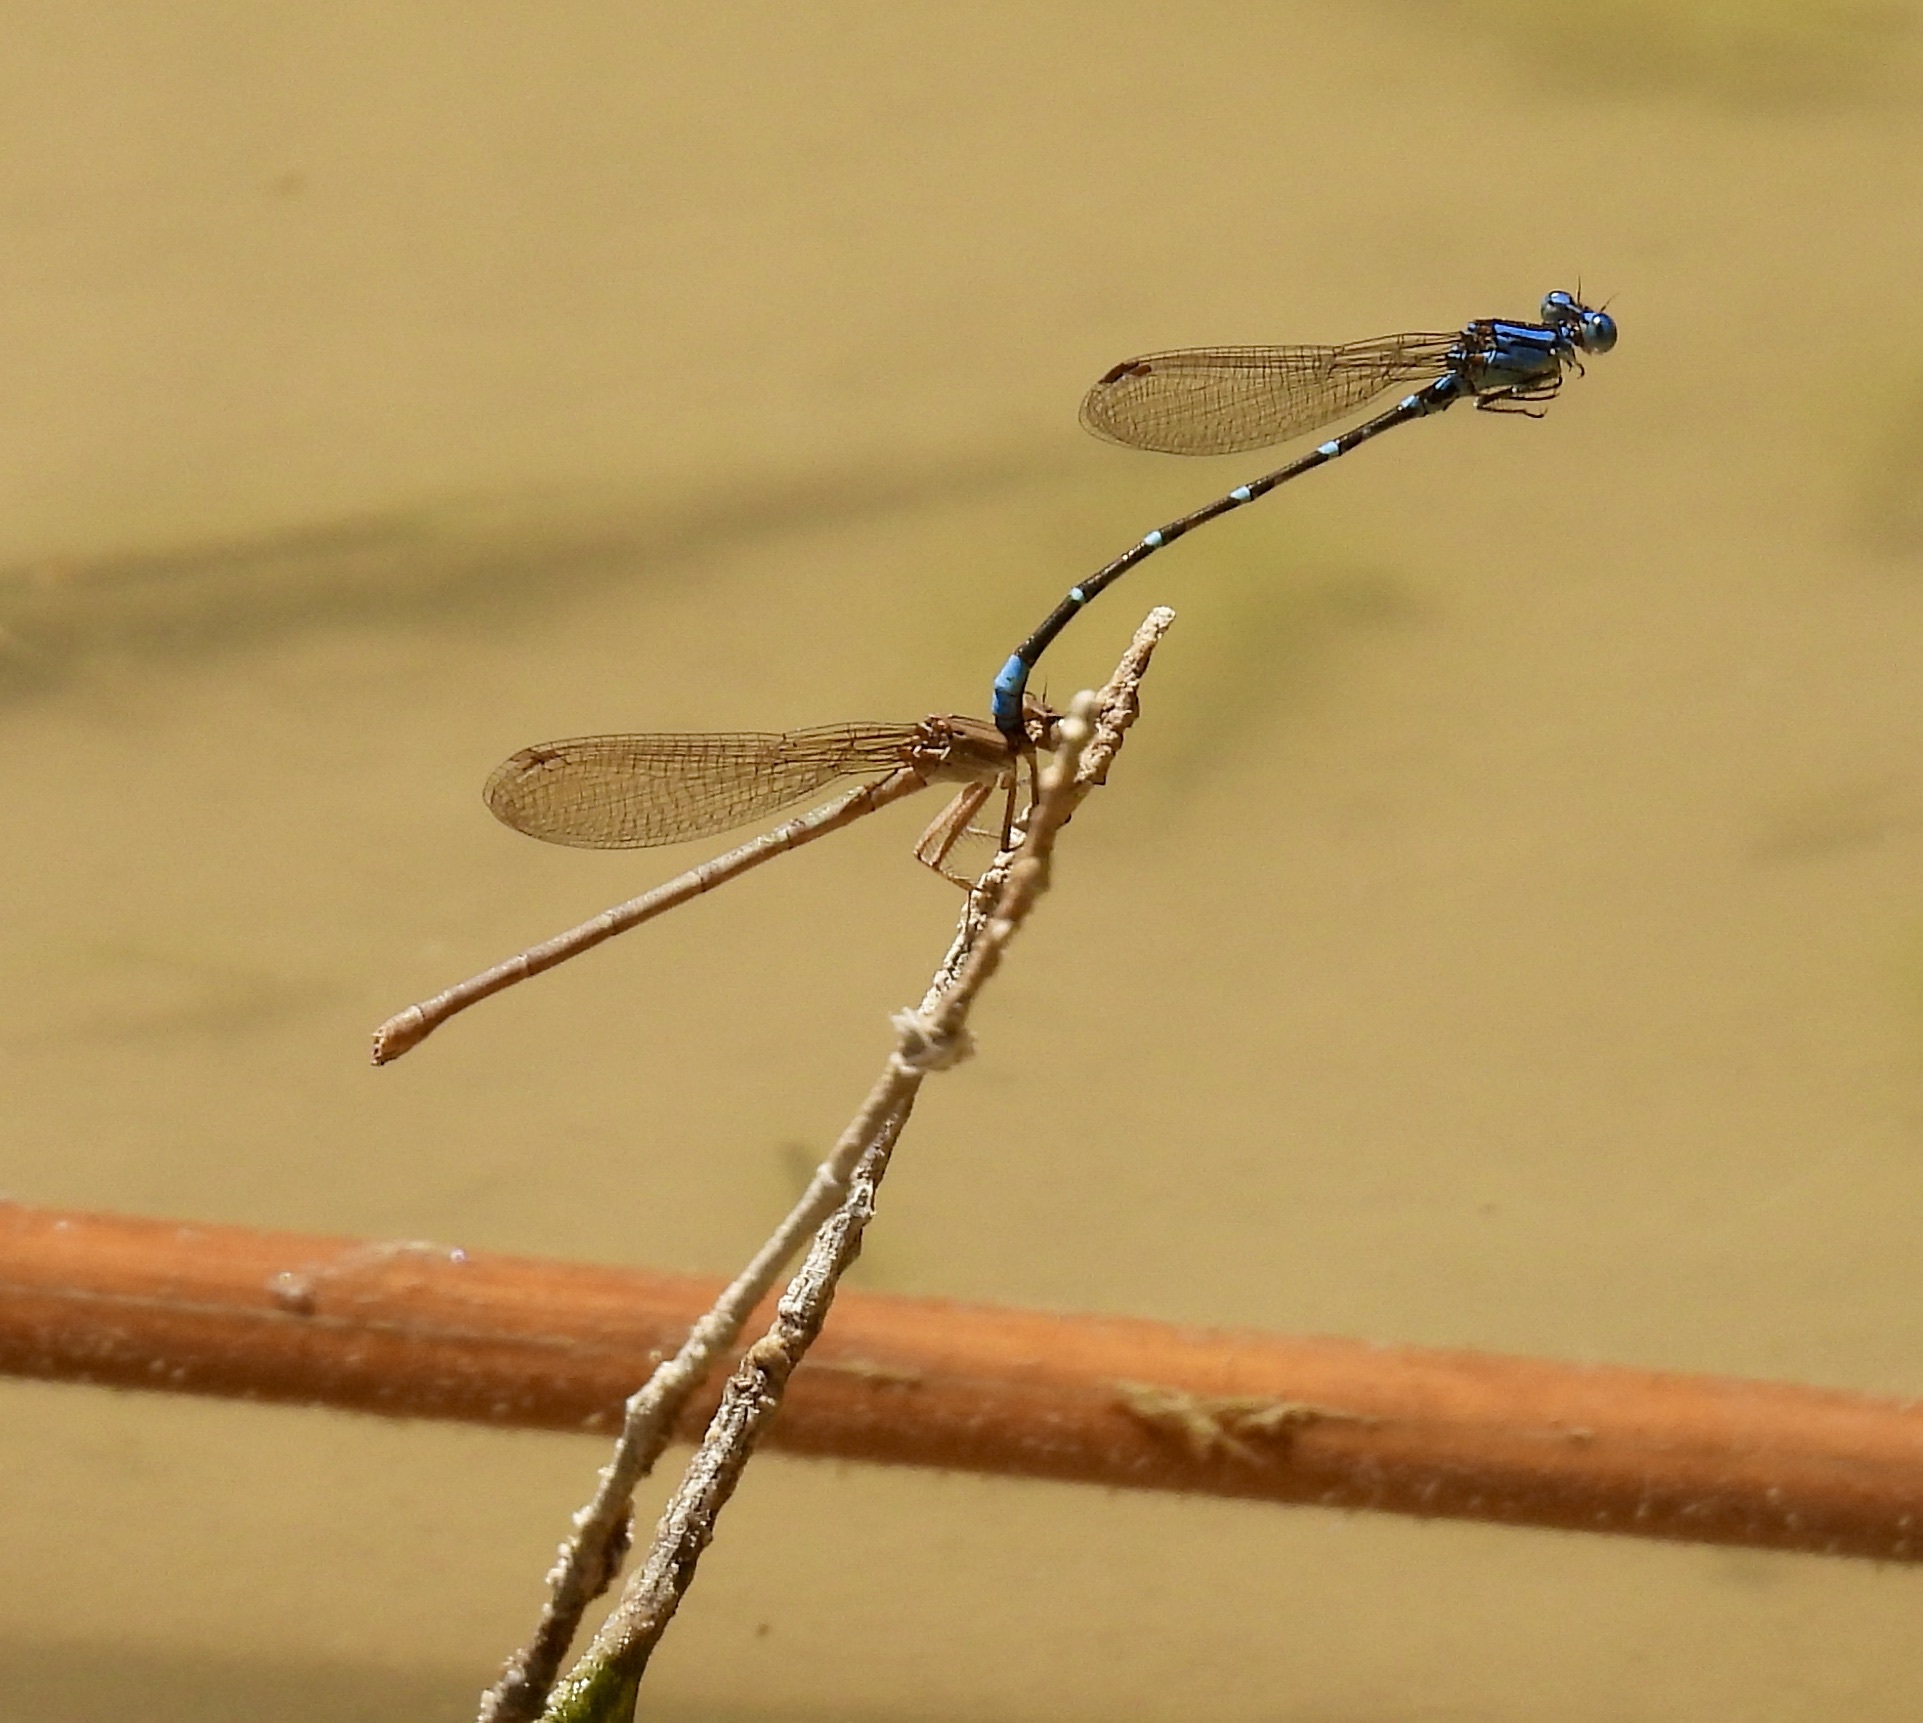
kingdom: Animalia
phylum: Arthropoda
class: Insecta
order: Odonata
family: Coenagrionidae
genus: Argia
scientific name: Argia sedula
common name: Blue-ringed dancer
